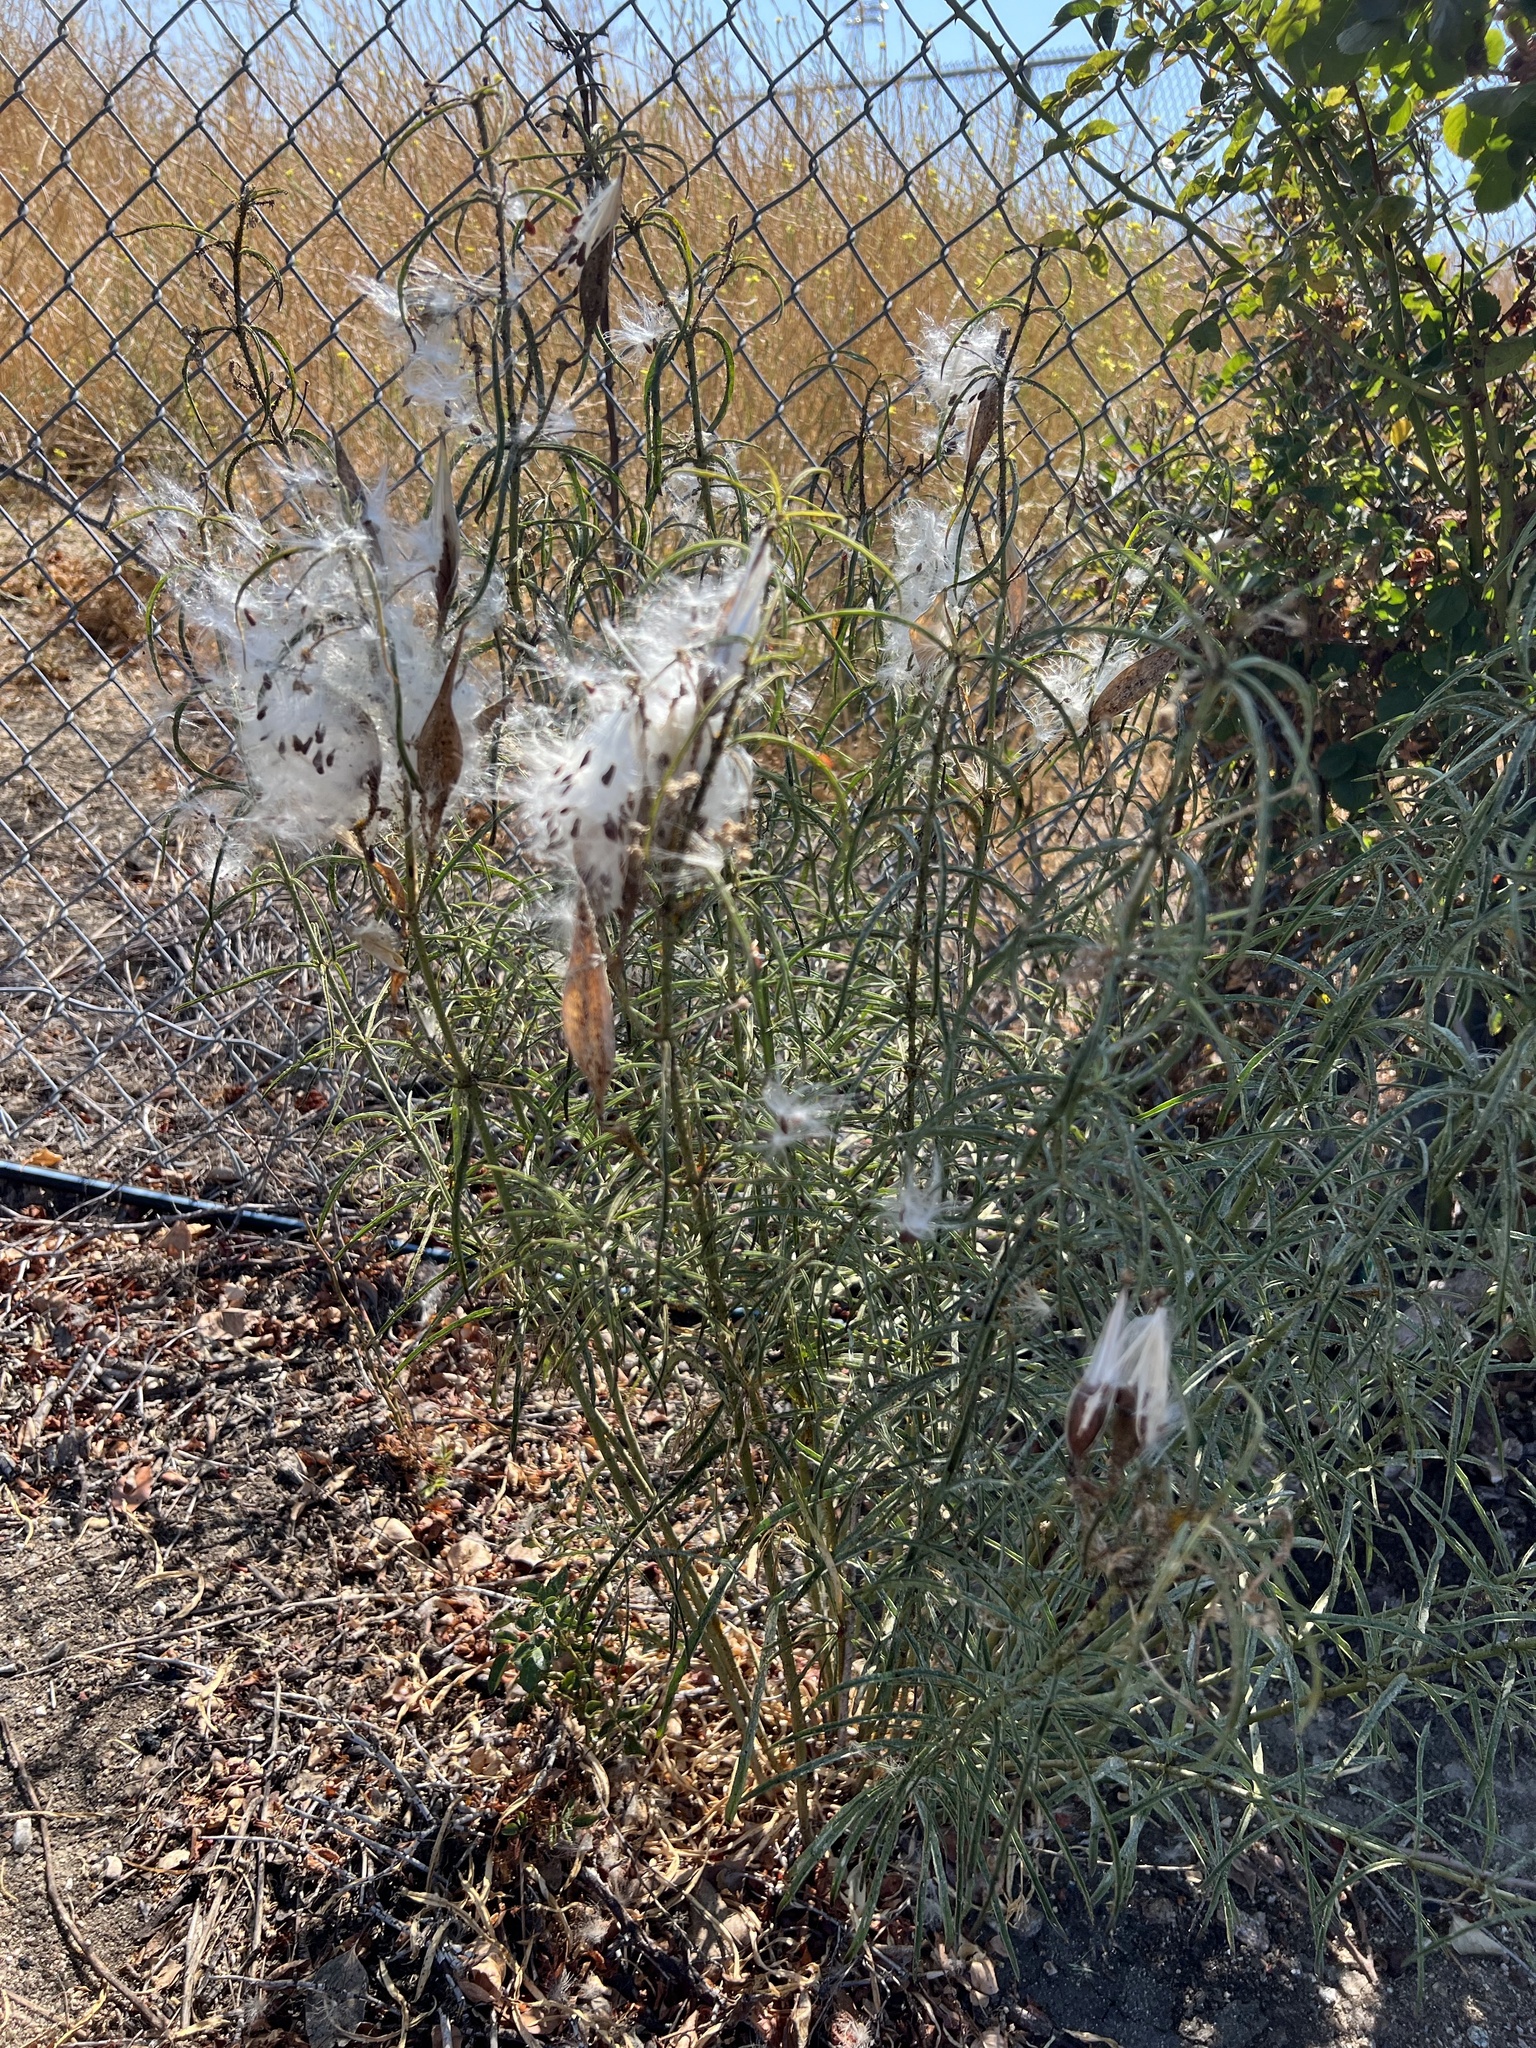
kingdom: Plantae
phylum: Tracheophyta
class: Magnoliopsida
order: Gentianales
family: Apocynaceae
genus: Asclepias
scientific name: Asclepias fascicularis
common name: Mexican milkweed
